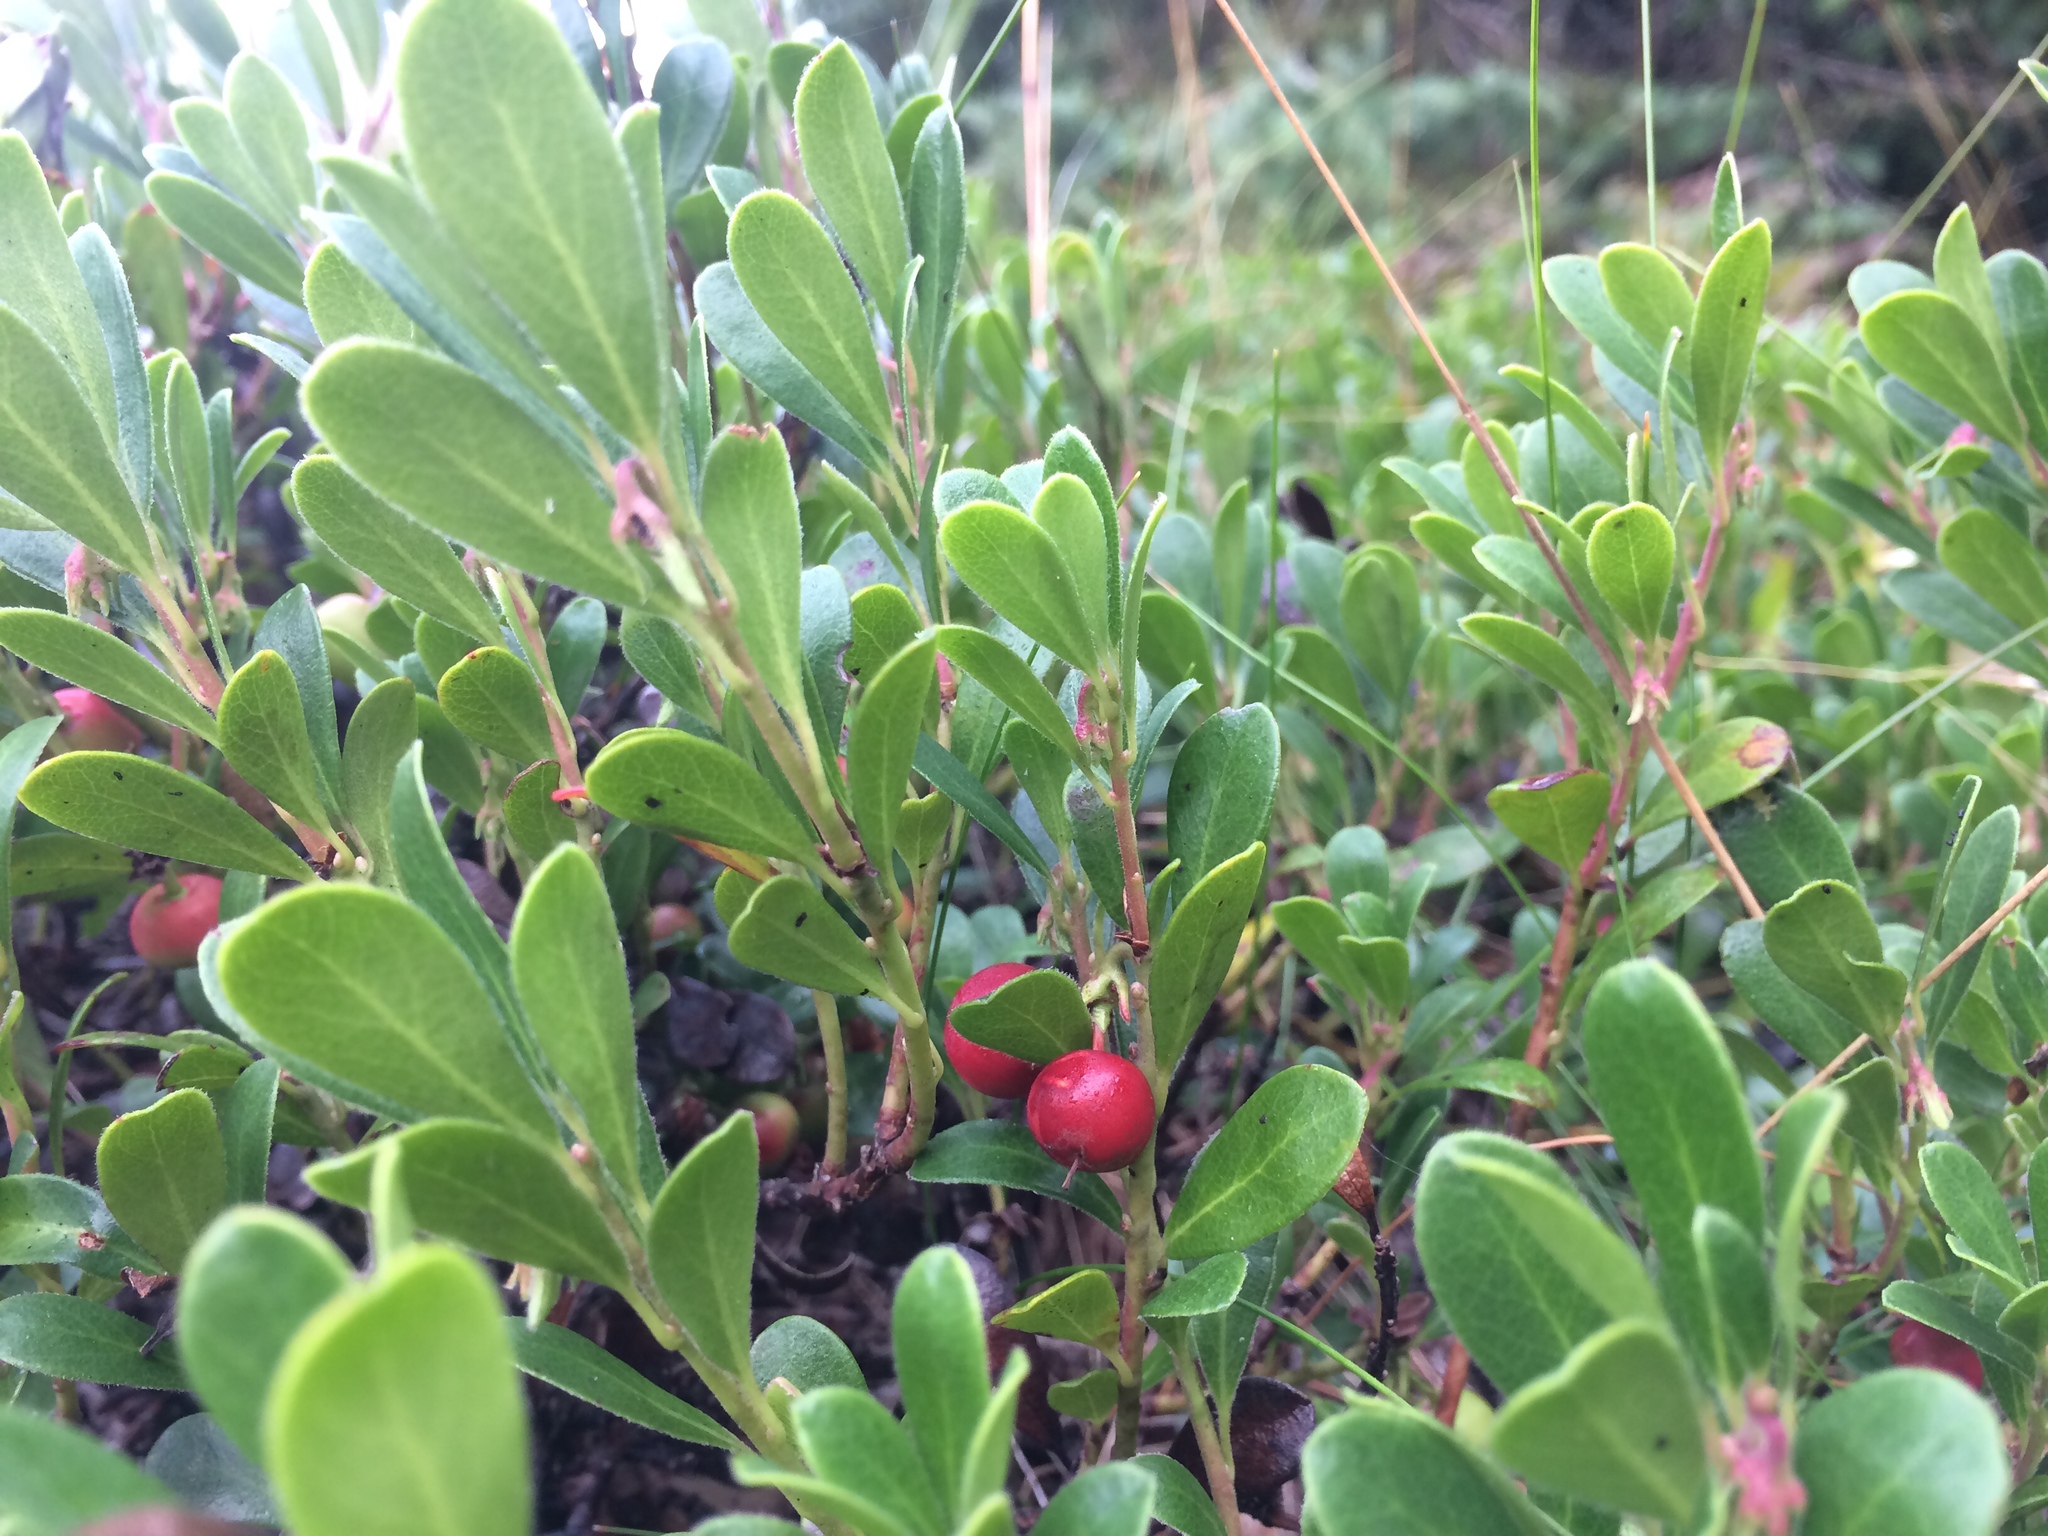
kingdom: Plantae
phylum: Tracheophyta
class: Magnoliopsida
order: Ericales
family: Ericaceae
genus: Arctostaphylos
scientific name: Arctostaphylos uva-ursi
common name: Bearberry
